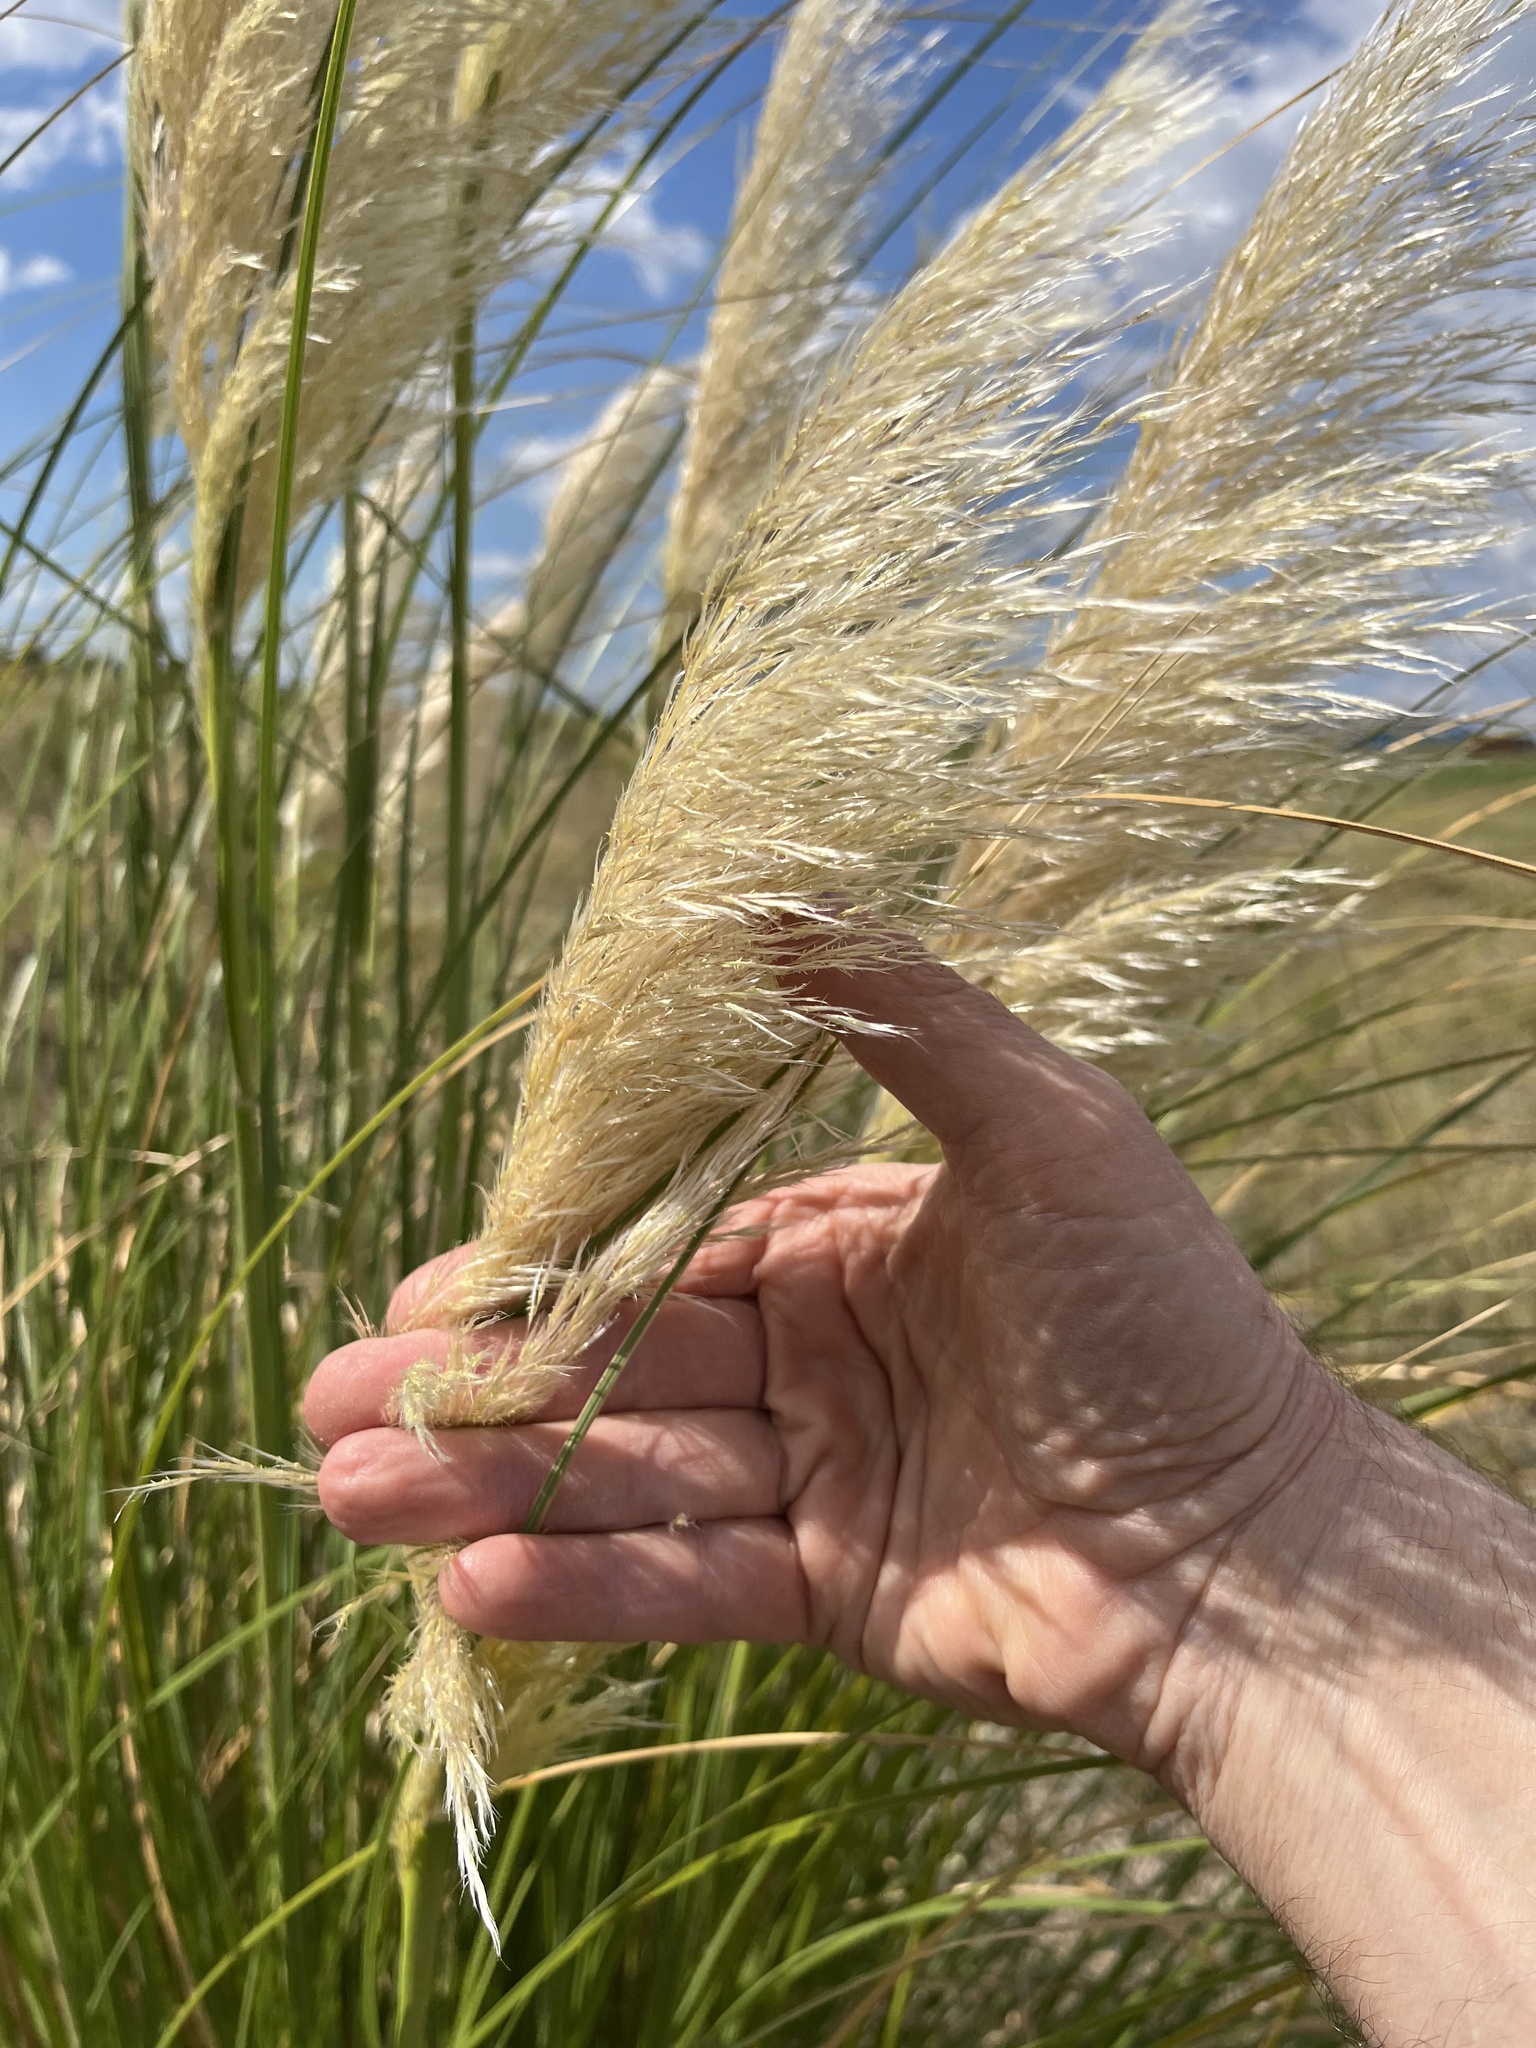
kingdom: Plantae
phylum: Tracheophyta
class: Liliopsida
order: Poales
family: Poaceae
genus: Cortaderia
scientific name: Cortaderia selloana
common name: Uruguayan pampas grass
